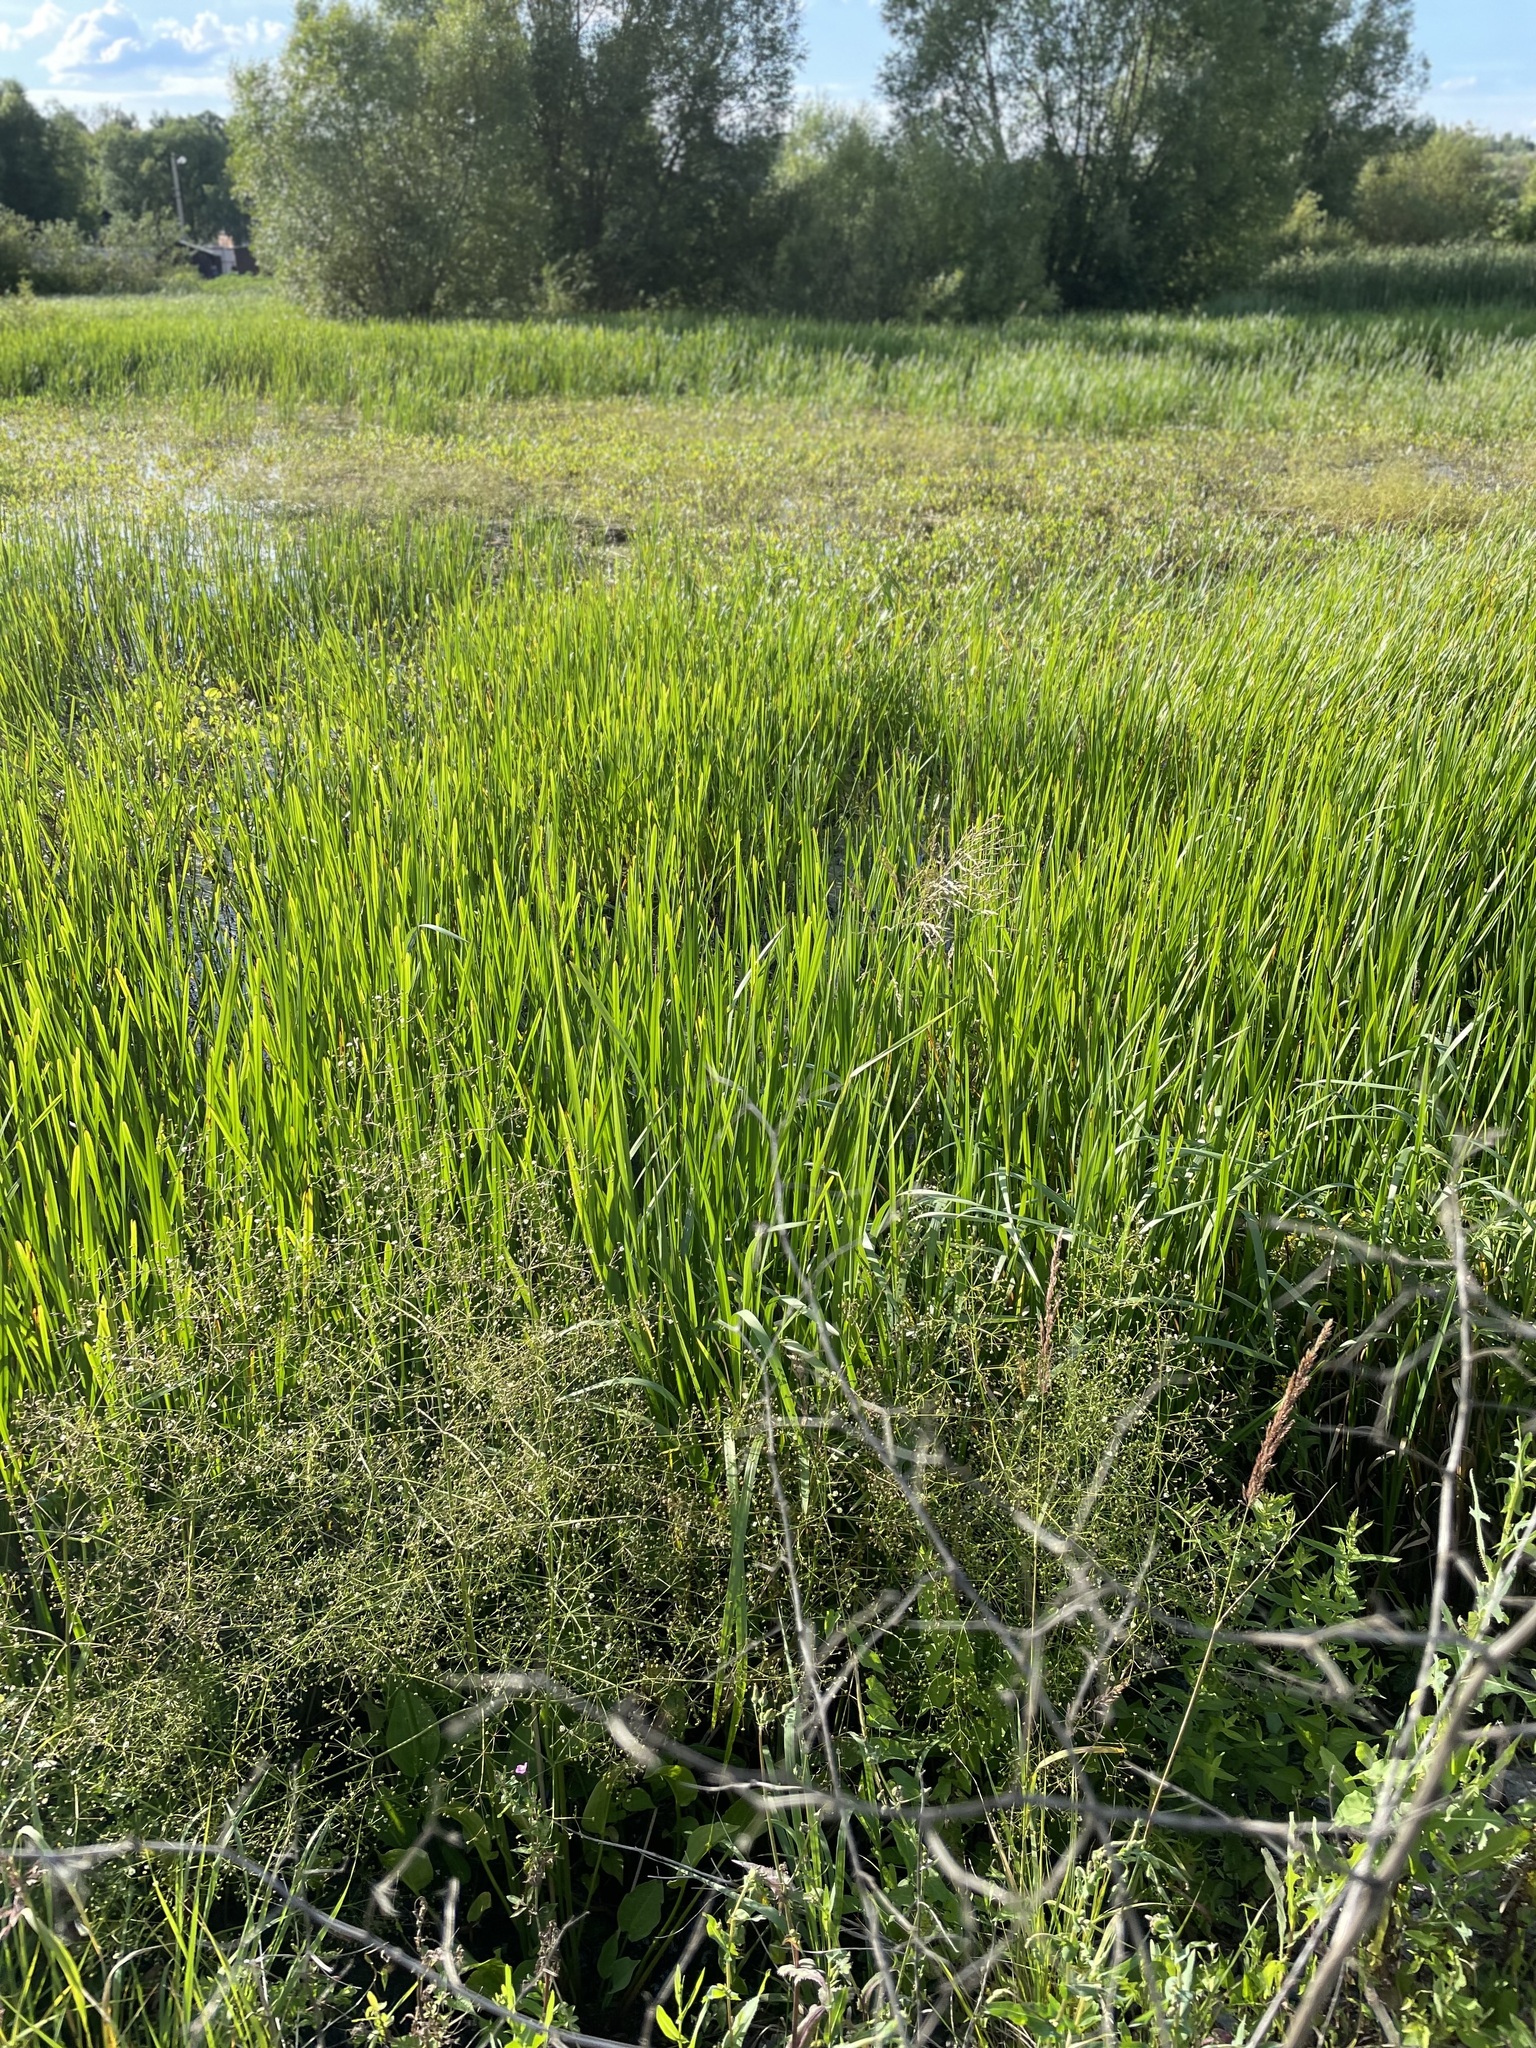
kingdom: Plantae
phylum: Tracheophyta
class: Liliopsida
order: Alismatales
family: Alismataceae
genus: Alisma
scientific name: Alisma plantago-aquatica
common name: Water-plantain
